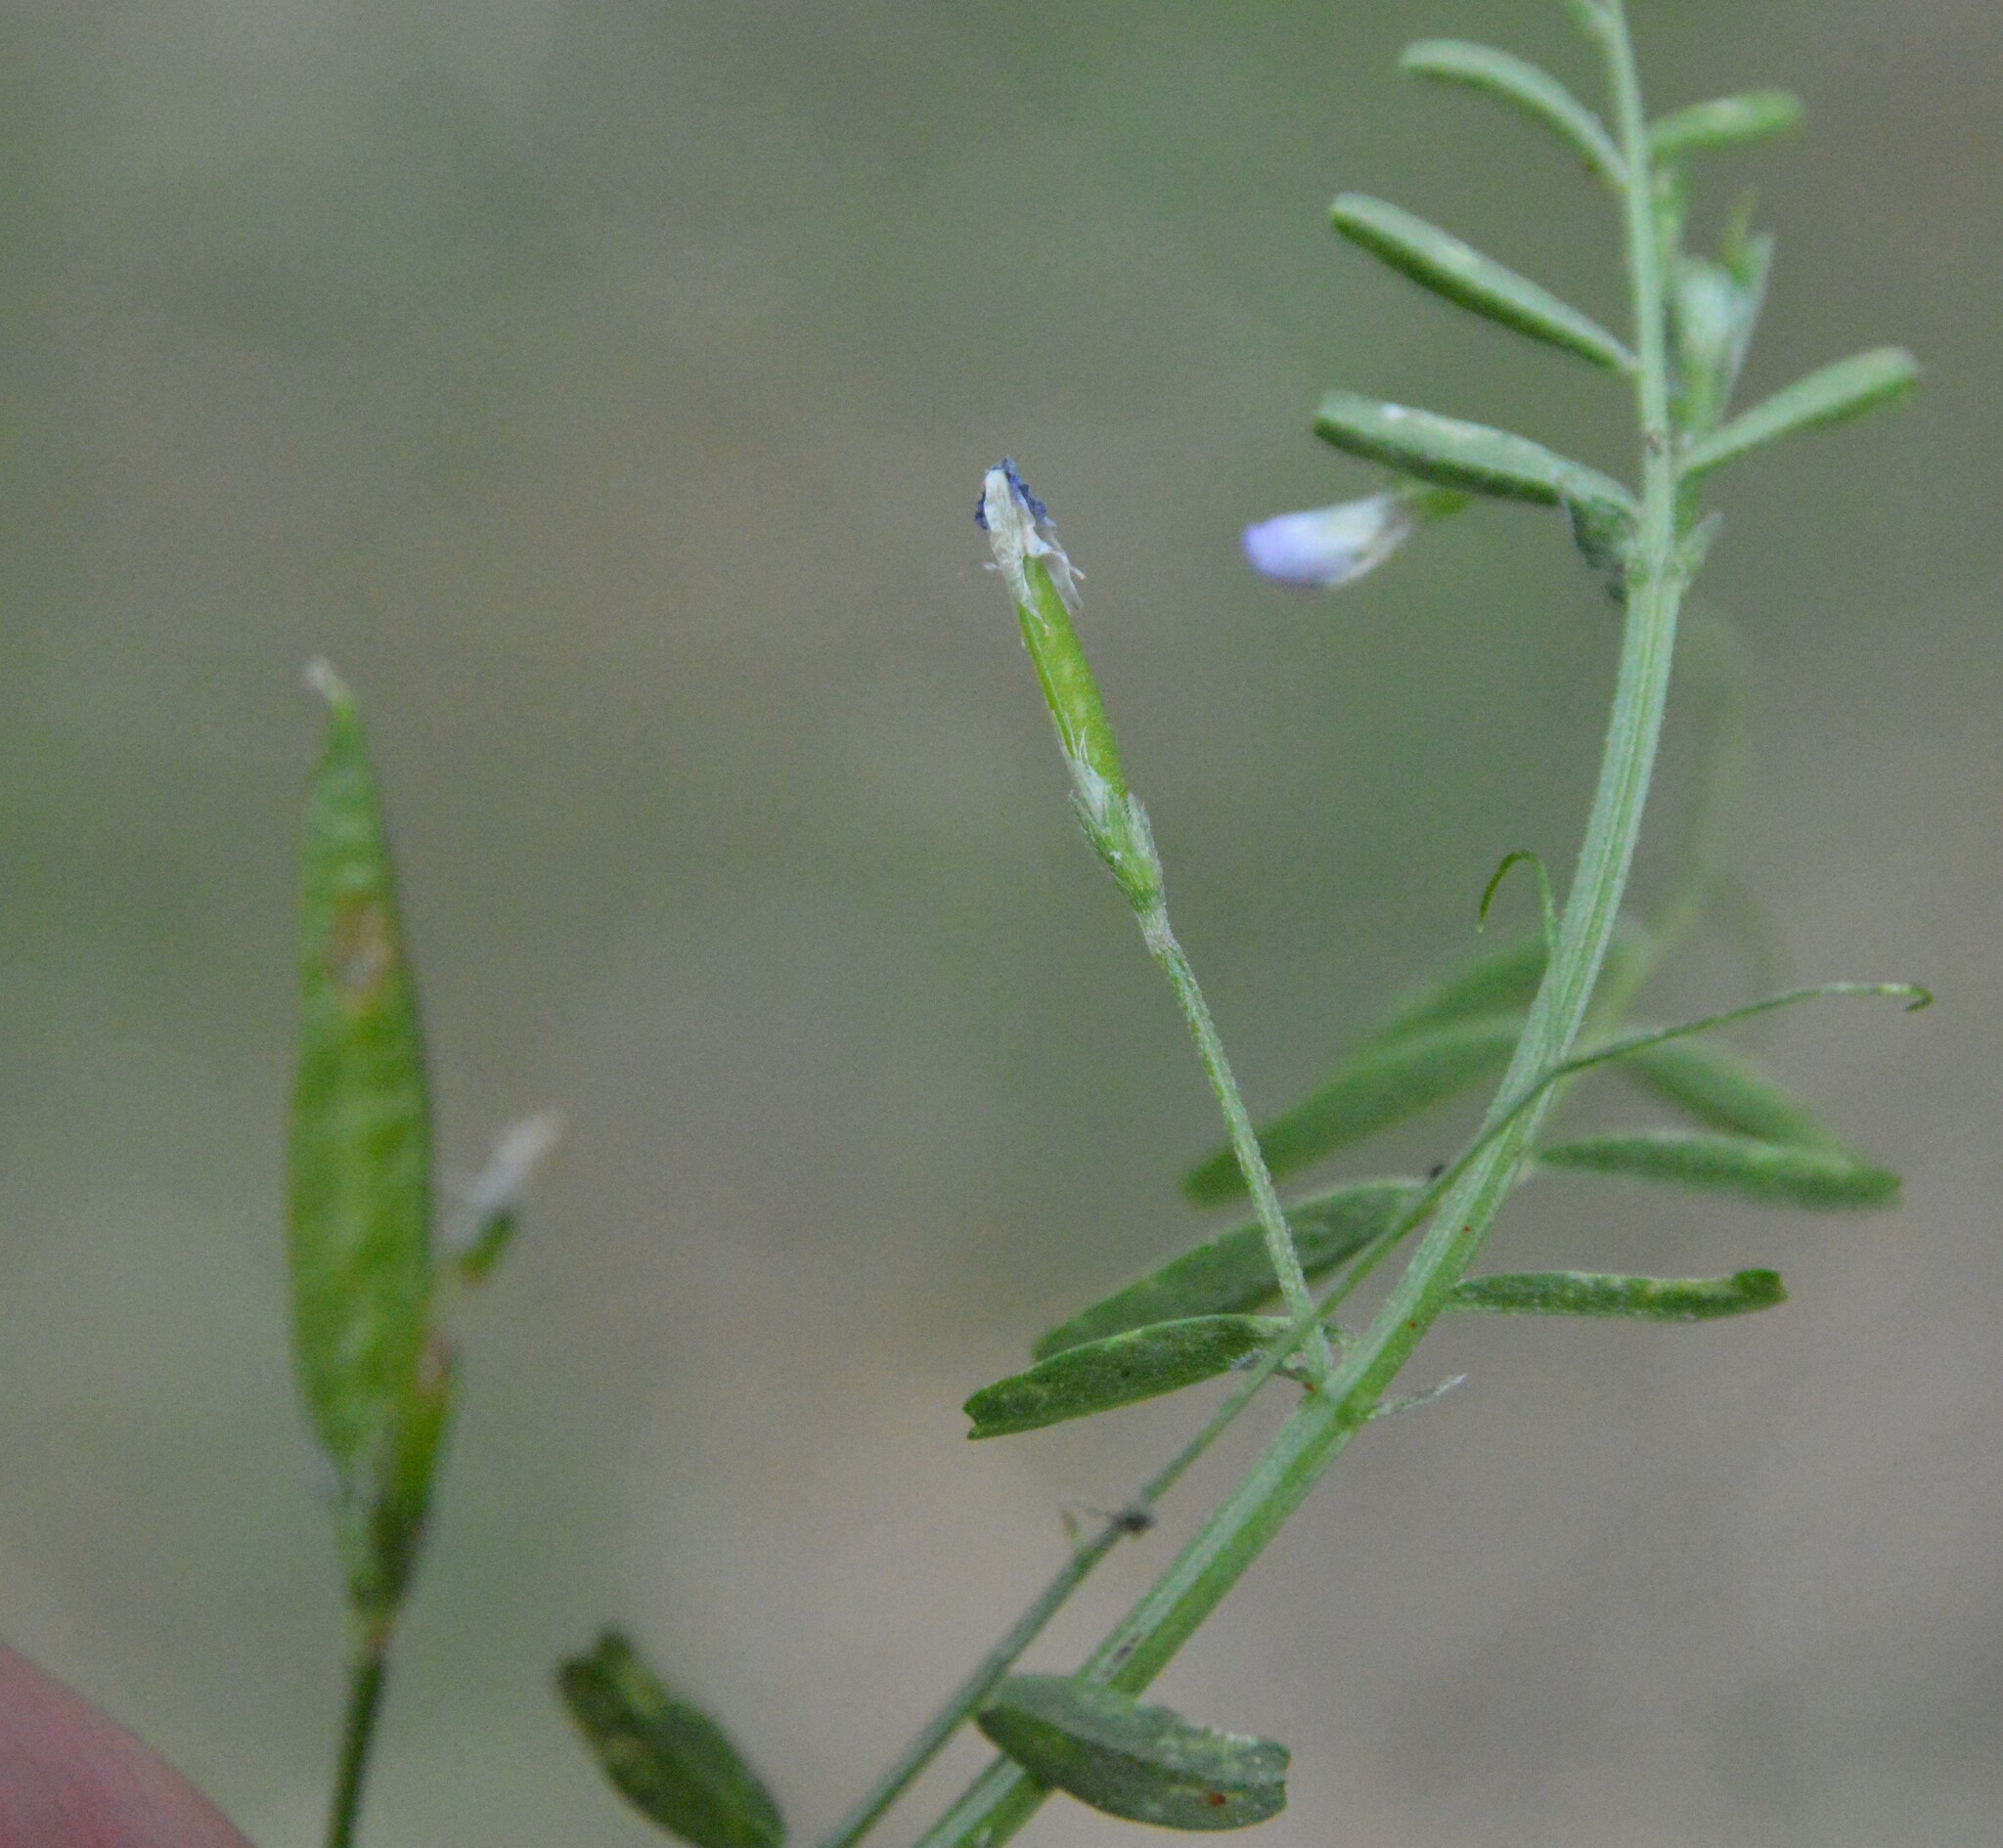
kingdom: Plantae
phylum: Tracheophyta
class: Magnoliopsida
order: Fabales
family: Fabaceae
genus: Vicia
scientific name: Vicia minutiflora
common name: Pygmy-flower vetch
